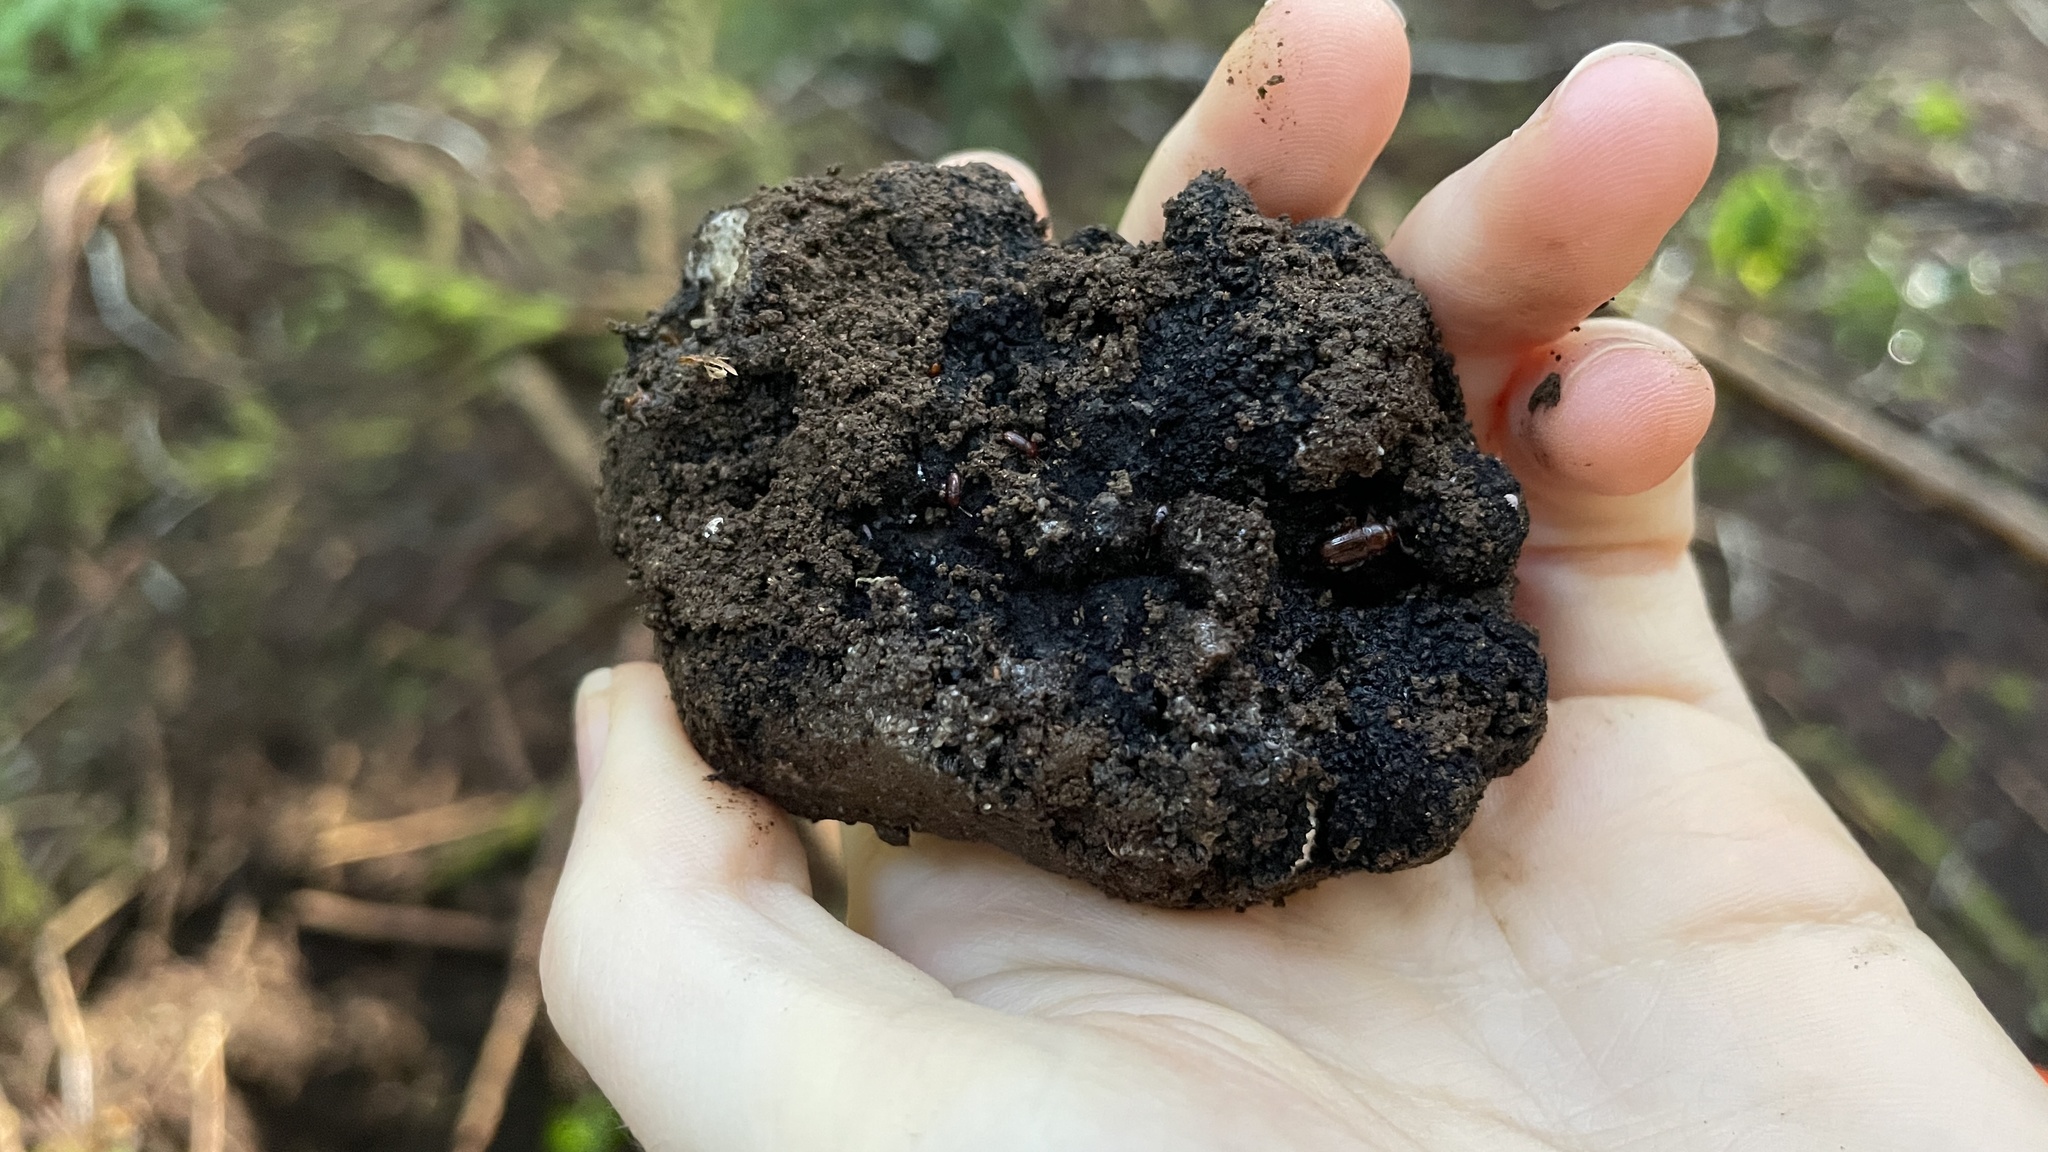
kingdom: Fungi
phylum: Ascomycota
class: Pezizomycetes
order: Pezizales
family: Morchellaceae
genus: Leucangium
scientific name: Leucangium carthusianum
